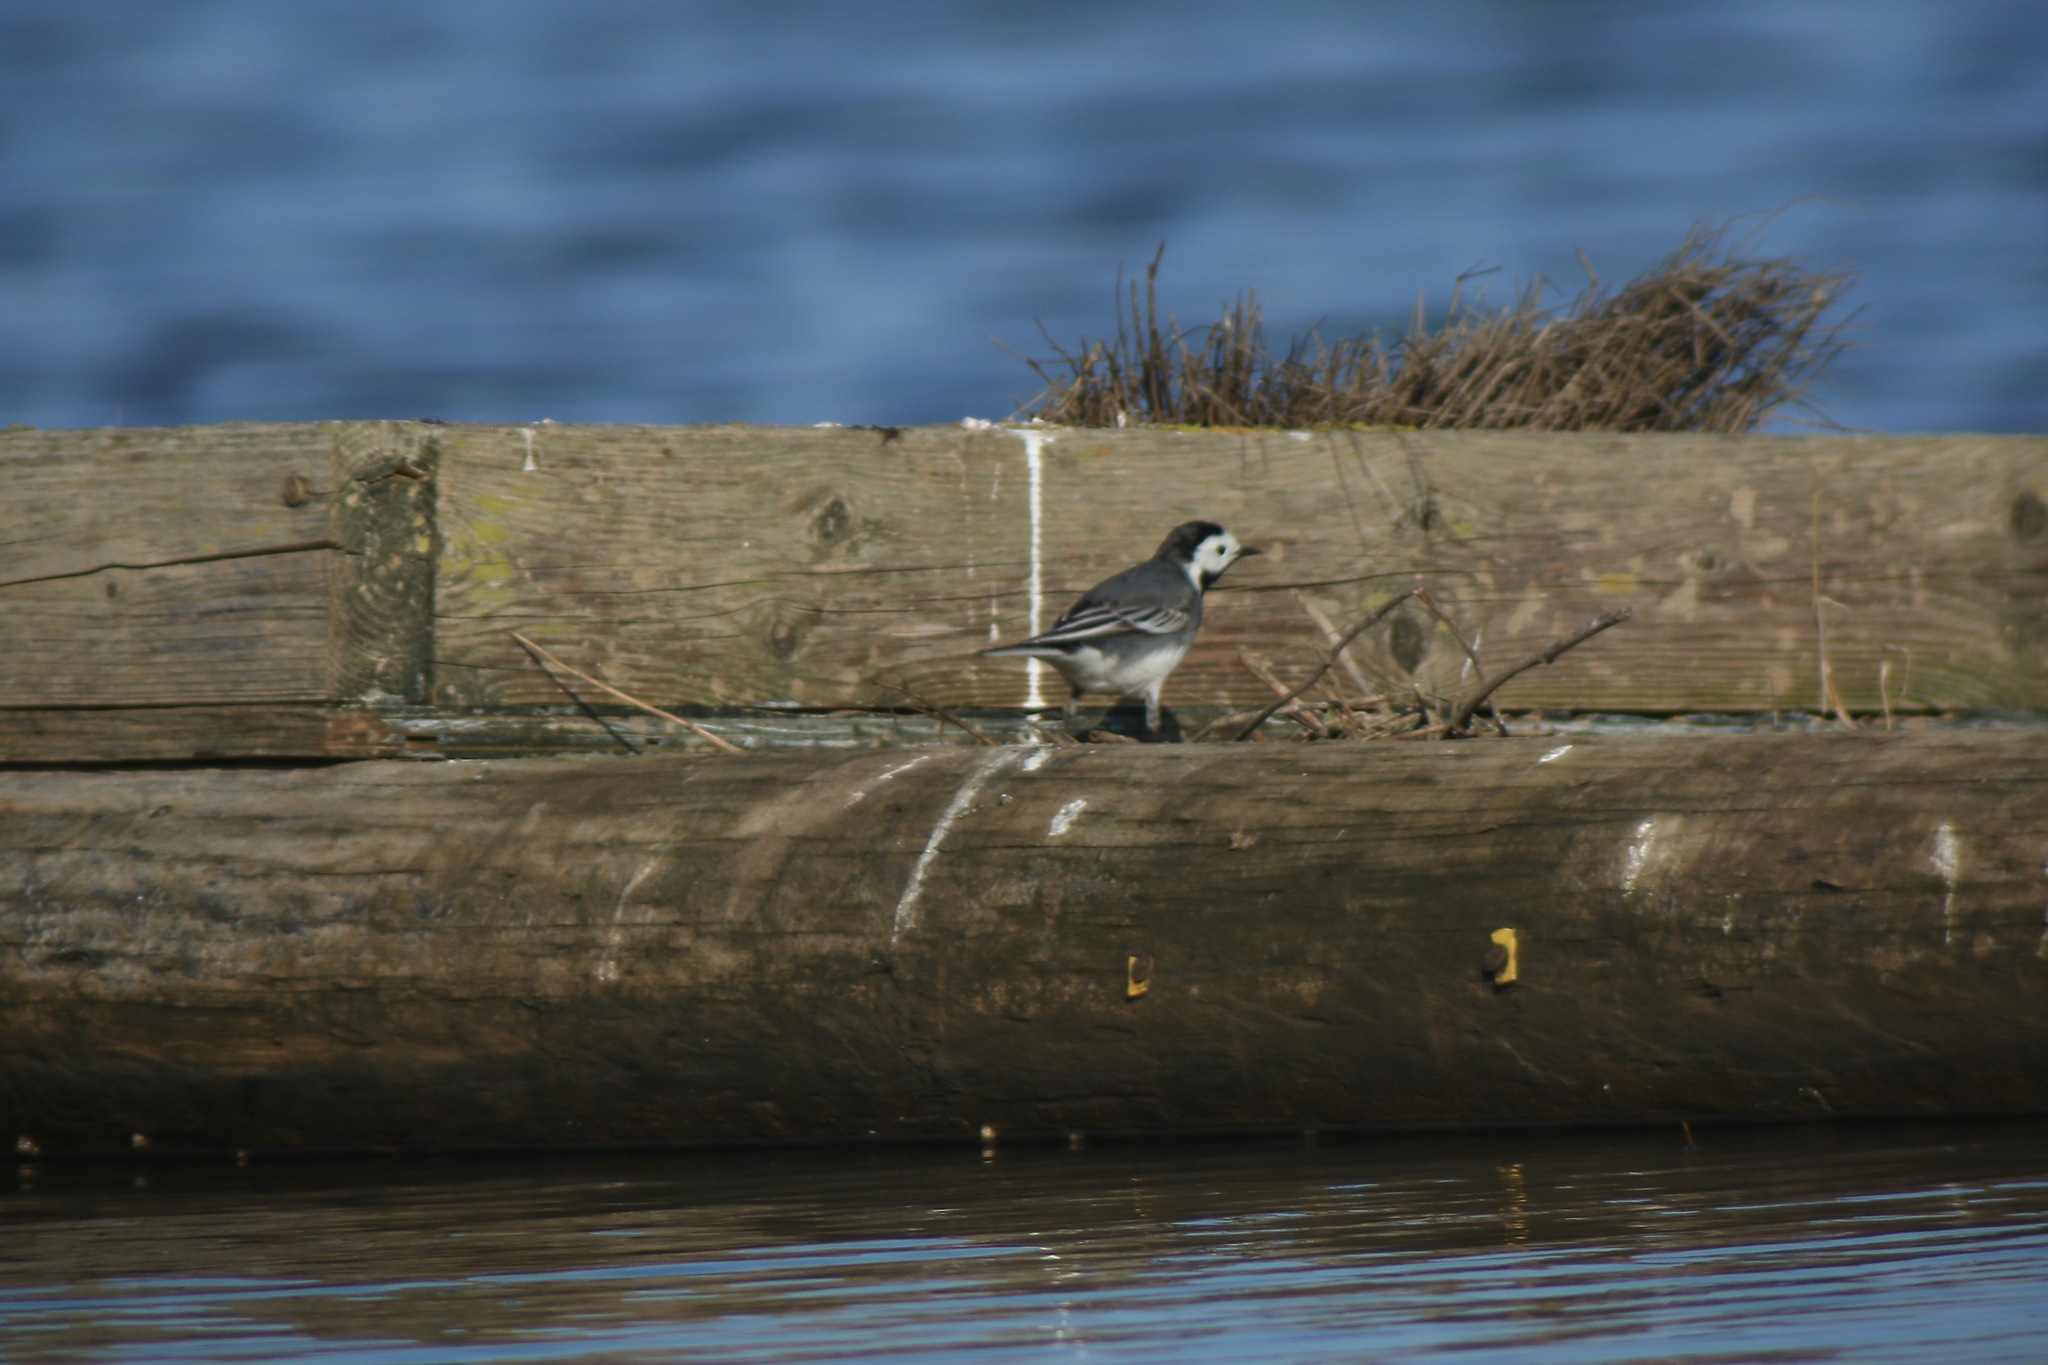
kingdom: Animalia
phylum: Chordata
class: Aves
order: Passeriformes
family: Motacillidae
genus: Motacilla
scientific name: Motacilla alba
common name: White wagtail
